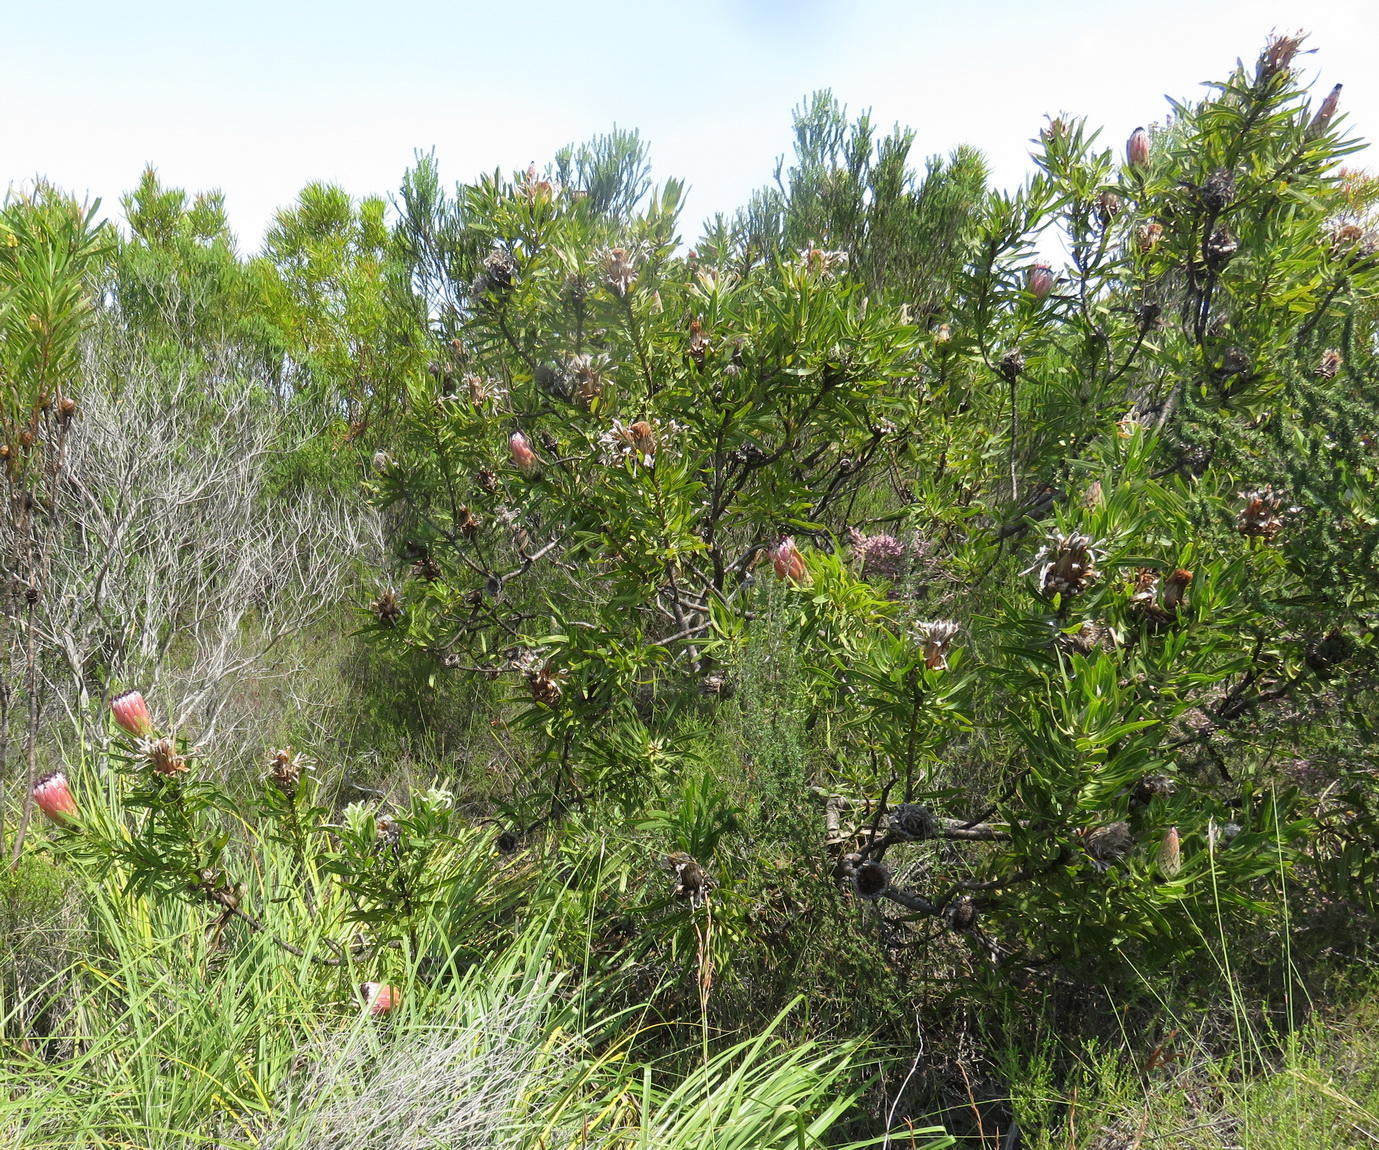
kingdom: Plantae
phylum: Tracheophyta
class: Magnoliopsida
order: Proteales
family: Proteaceae
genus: Protea
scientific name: Protea neriifolia
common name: Blue sugarbush
